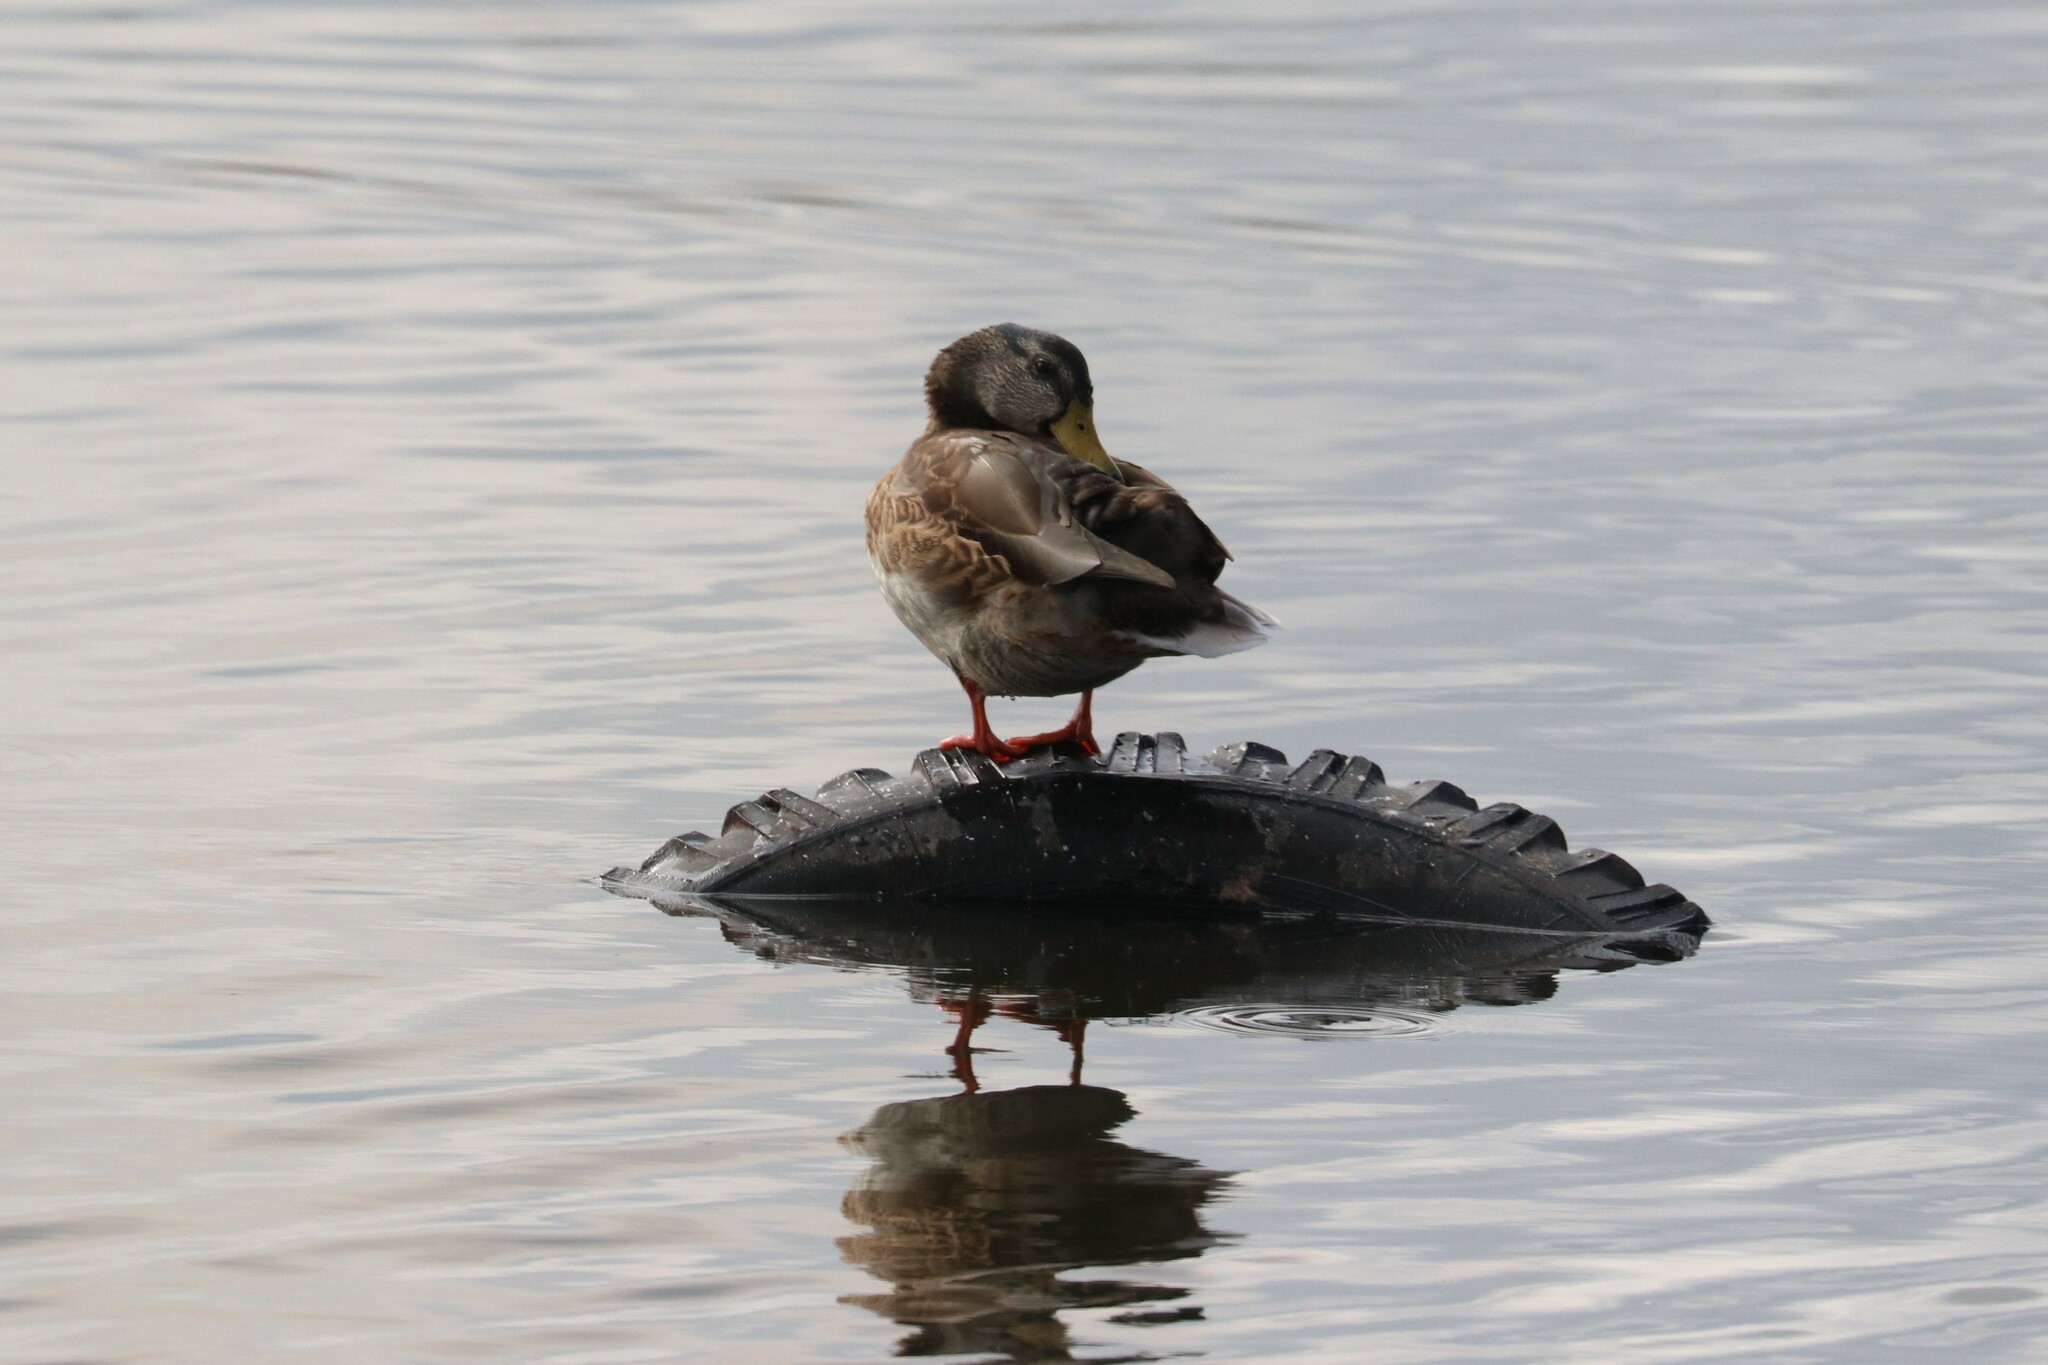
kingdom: Animalia
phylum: Chordata
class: Aves
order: Anseriformes
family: Anatidae
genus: Anas
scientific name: Anas platyrhynchos
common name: Mallard
